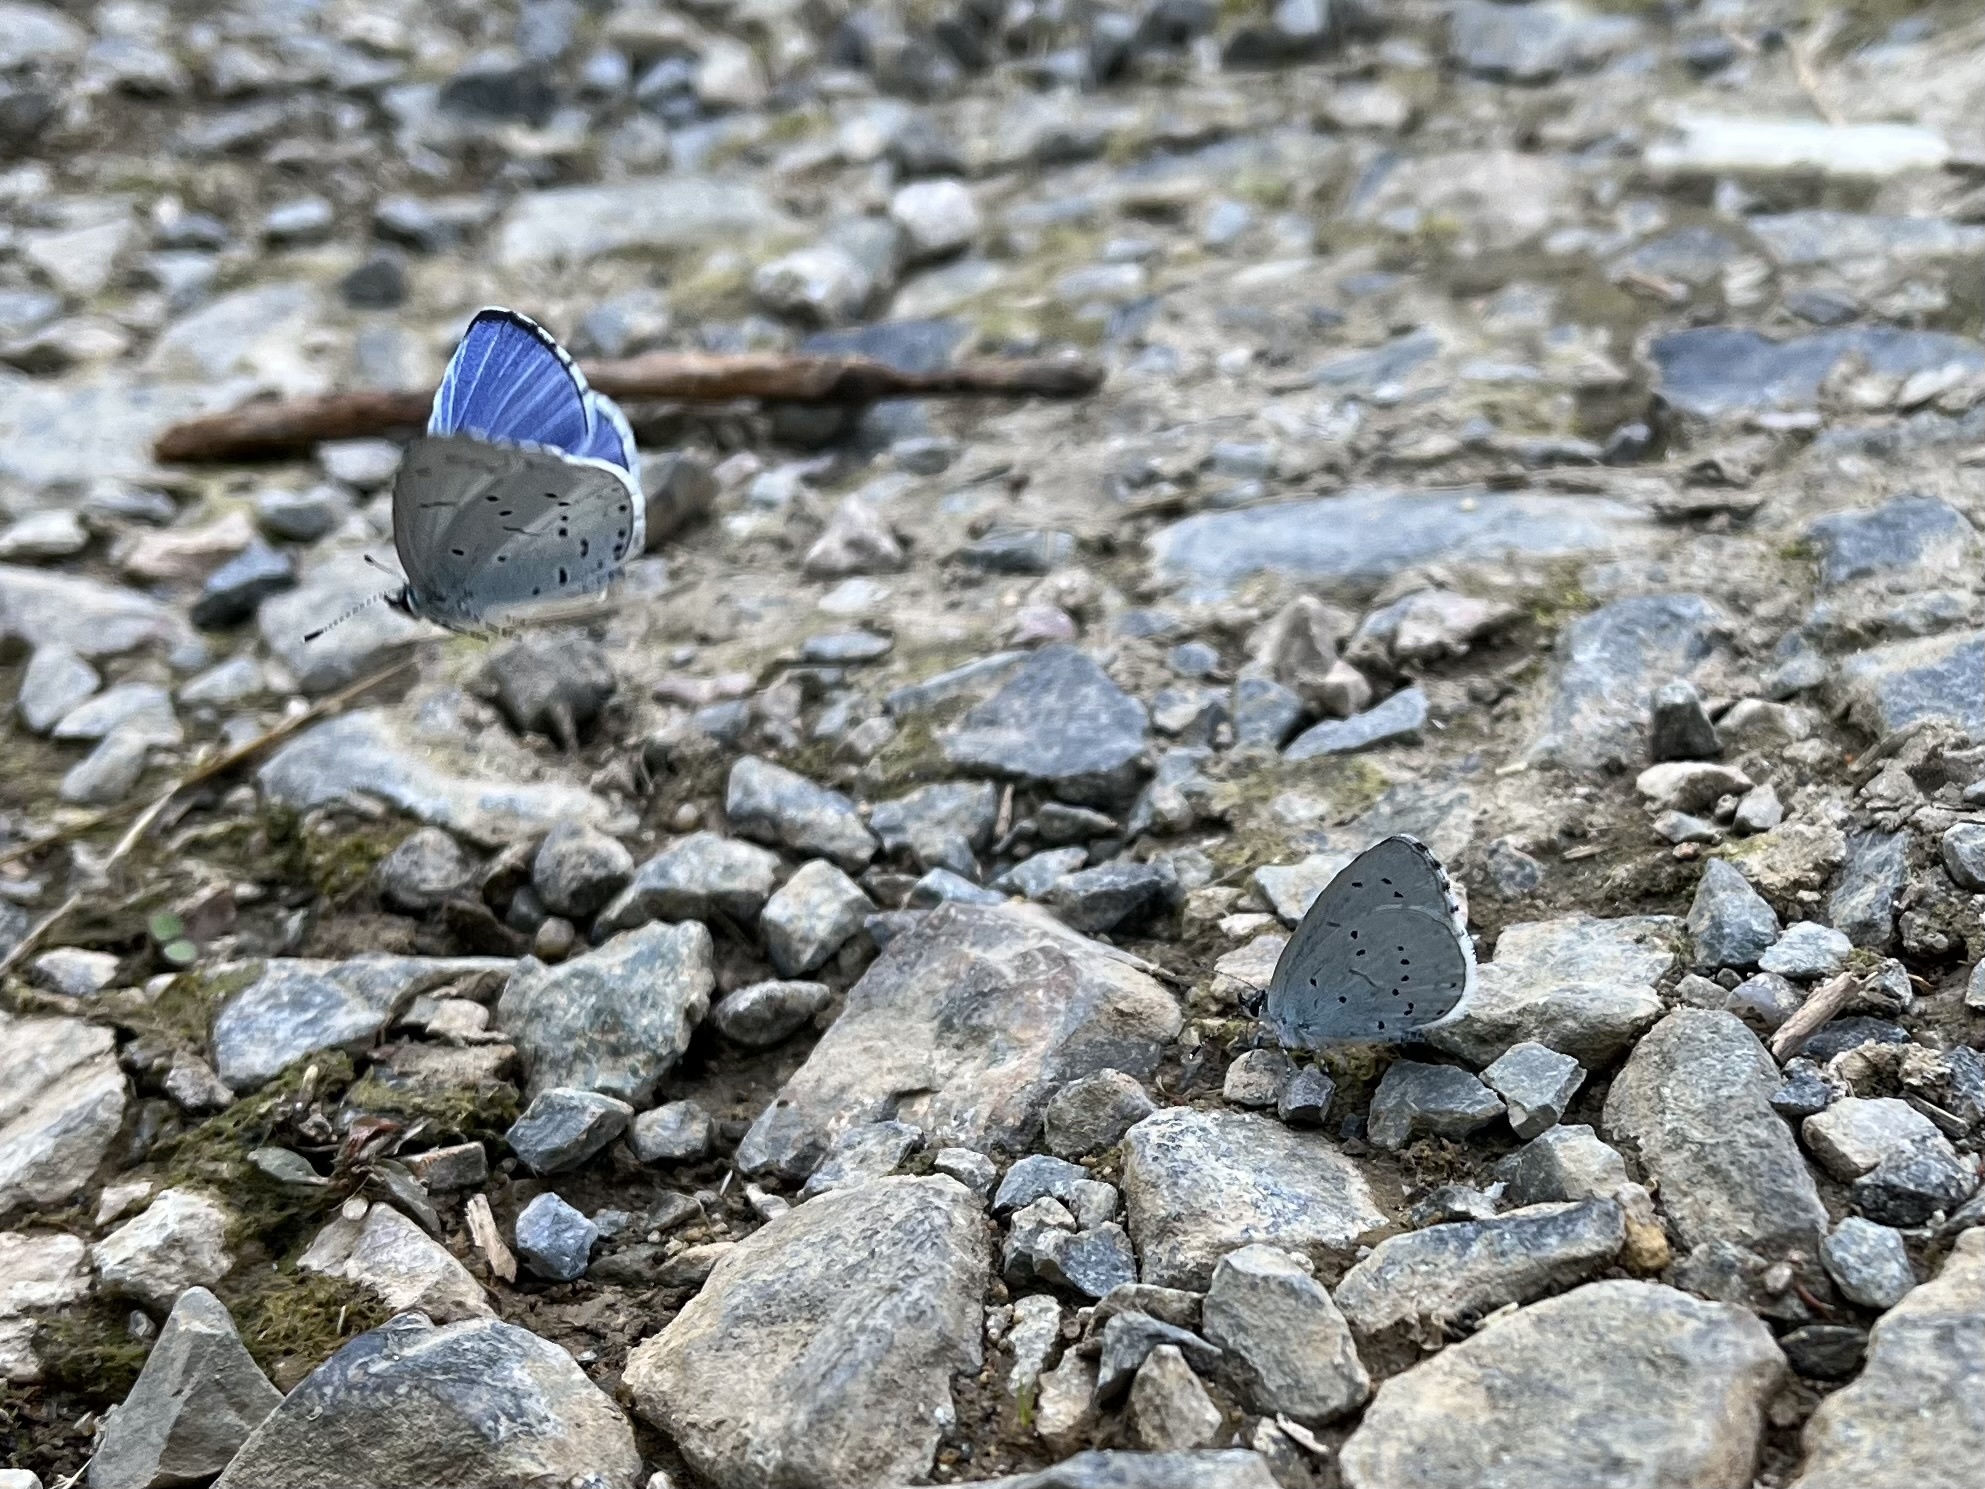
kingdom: Animalia
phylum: Arthropoda
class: Insecta
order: Lepidoptera
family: Lycaenidae
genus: Celastrina
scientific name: Celastrina argiolus
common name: Holly blue
